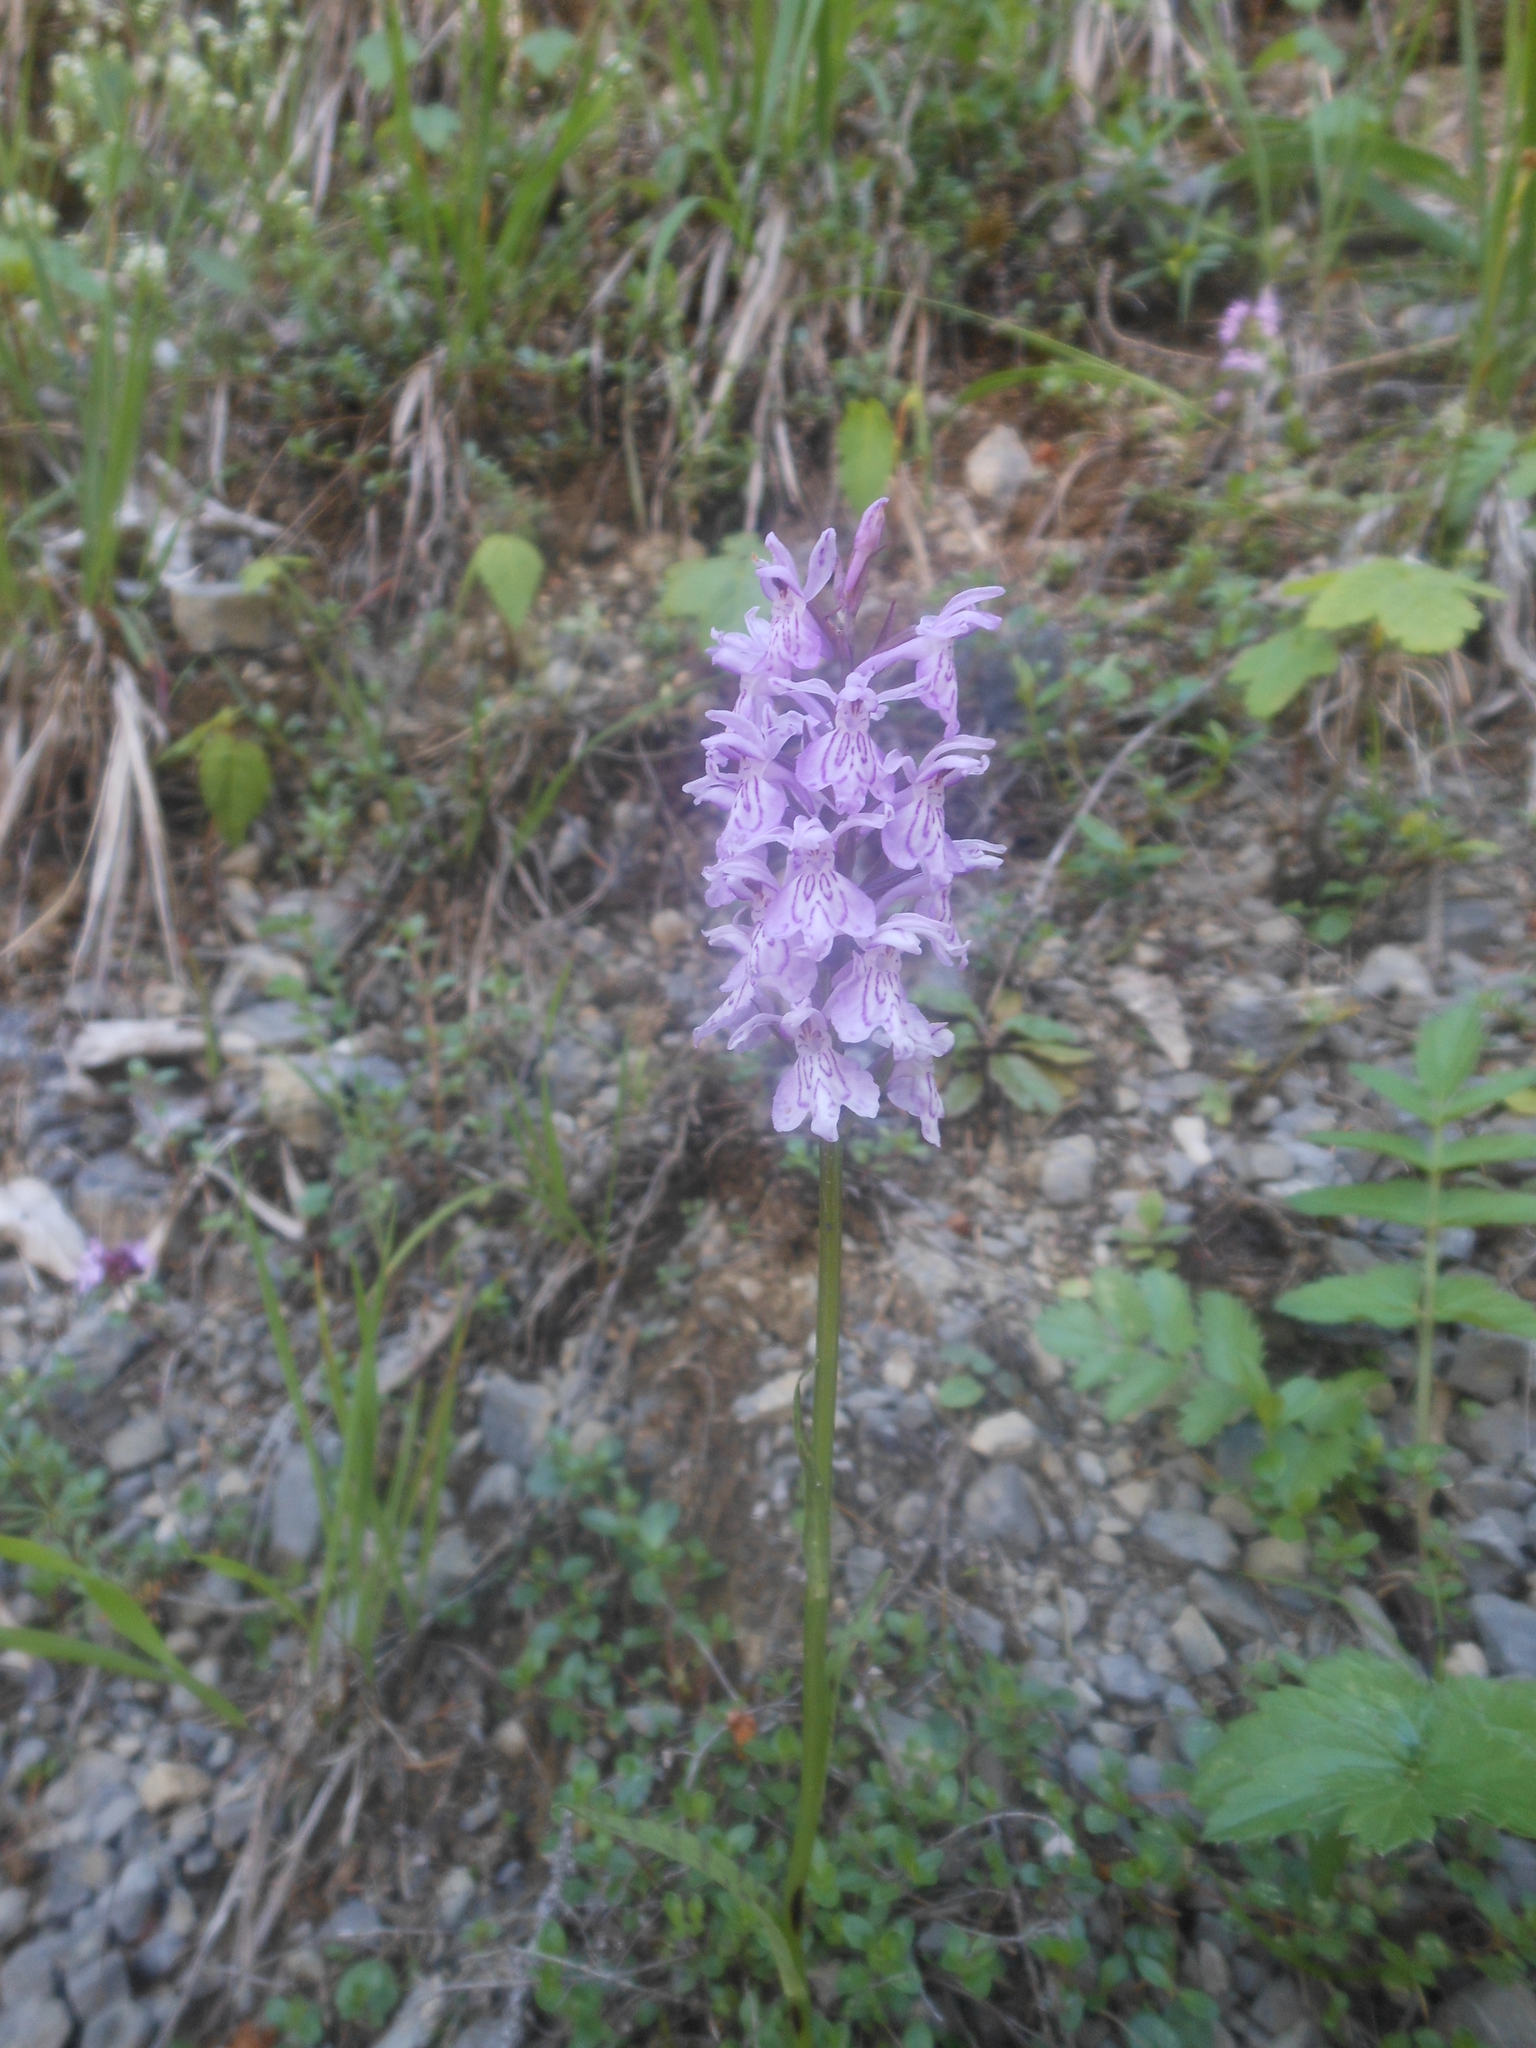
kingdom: Plantae
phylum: Tracheophyta
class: Liliopsida
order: Asparagales
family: Orchidaceae
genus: Dactylorhiza
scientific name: Dactylorhiza maculata
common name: Heath spotted-orchid
